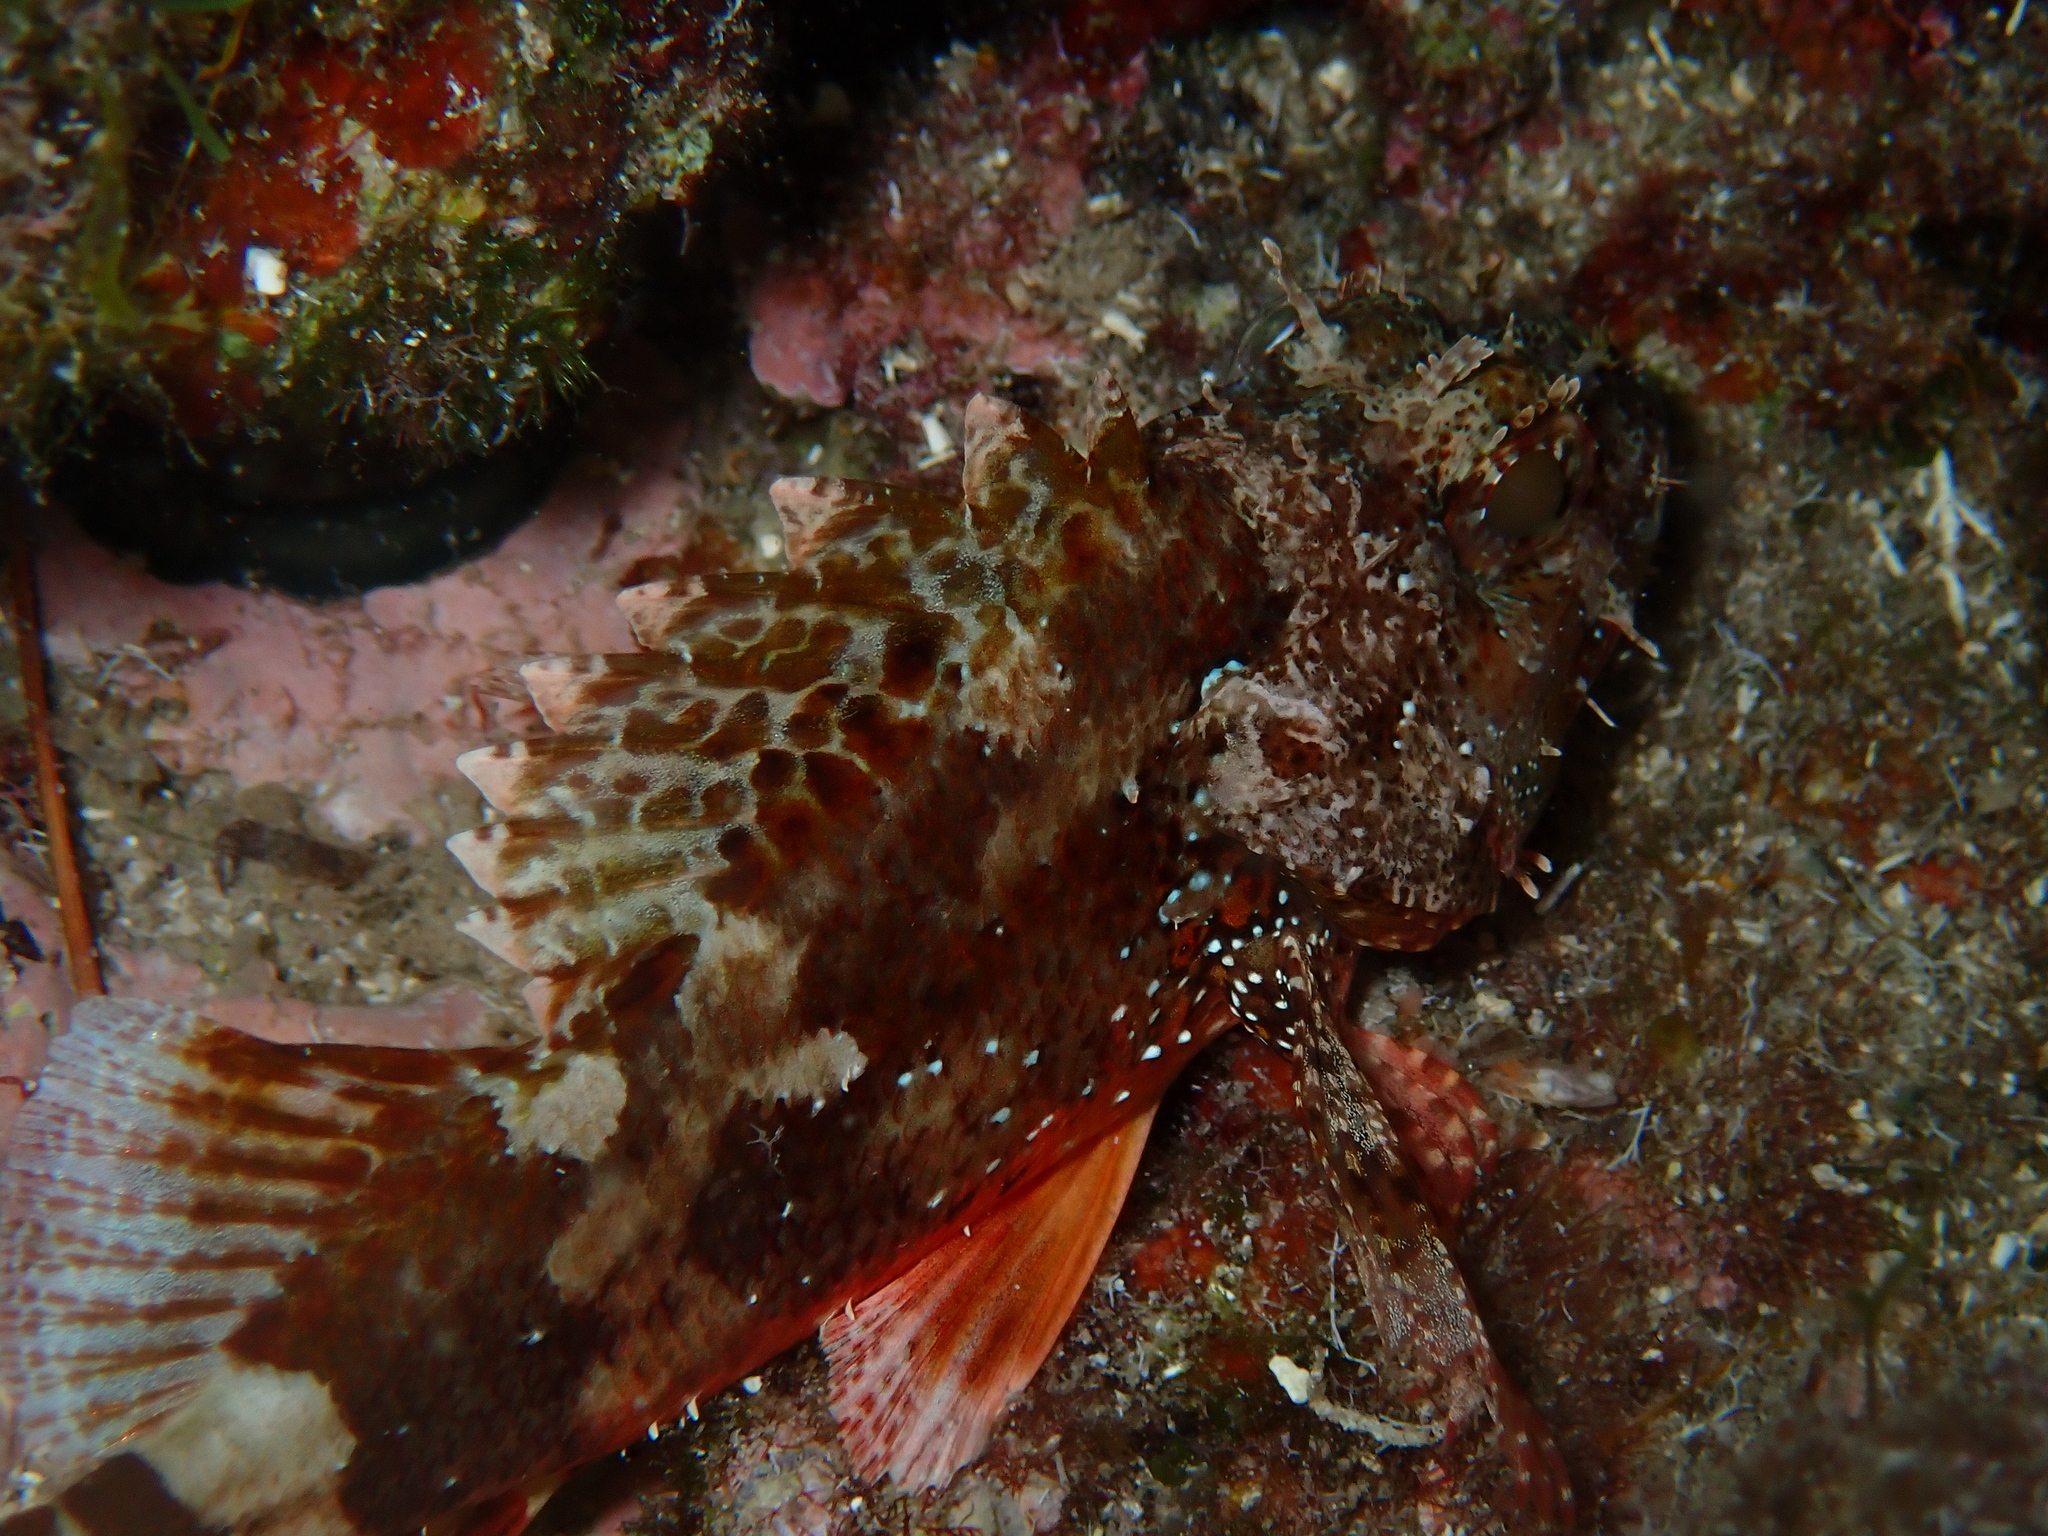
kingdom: Animalia
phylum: Chordata
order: Scorpaeniformes
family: Scorpaenidae
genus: Scorpaena
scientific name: Scorpaena maderensis
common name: Madeira rockfish
